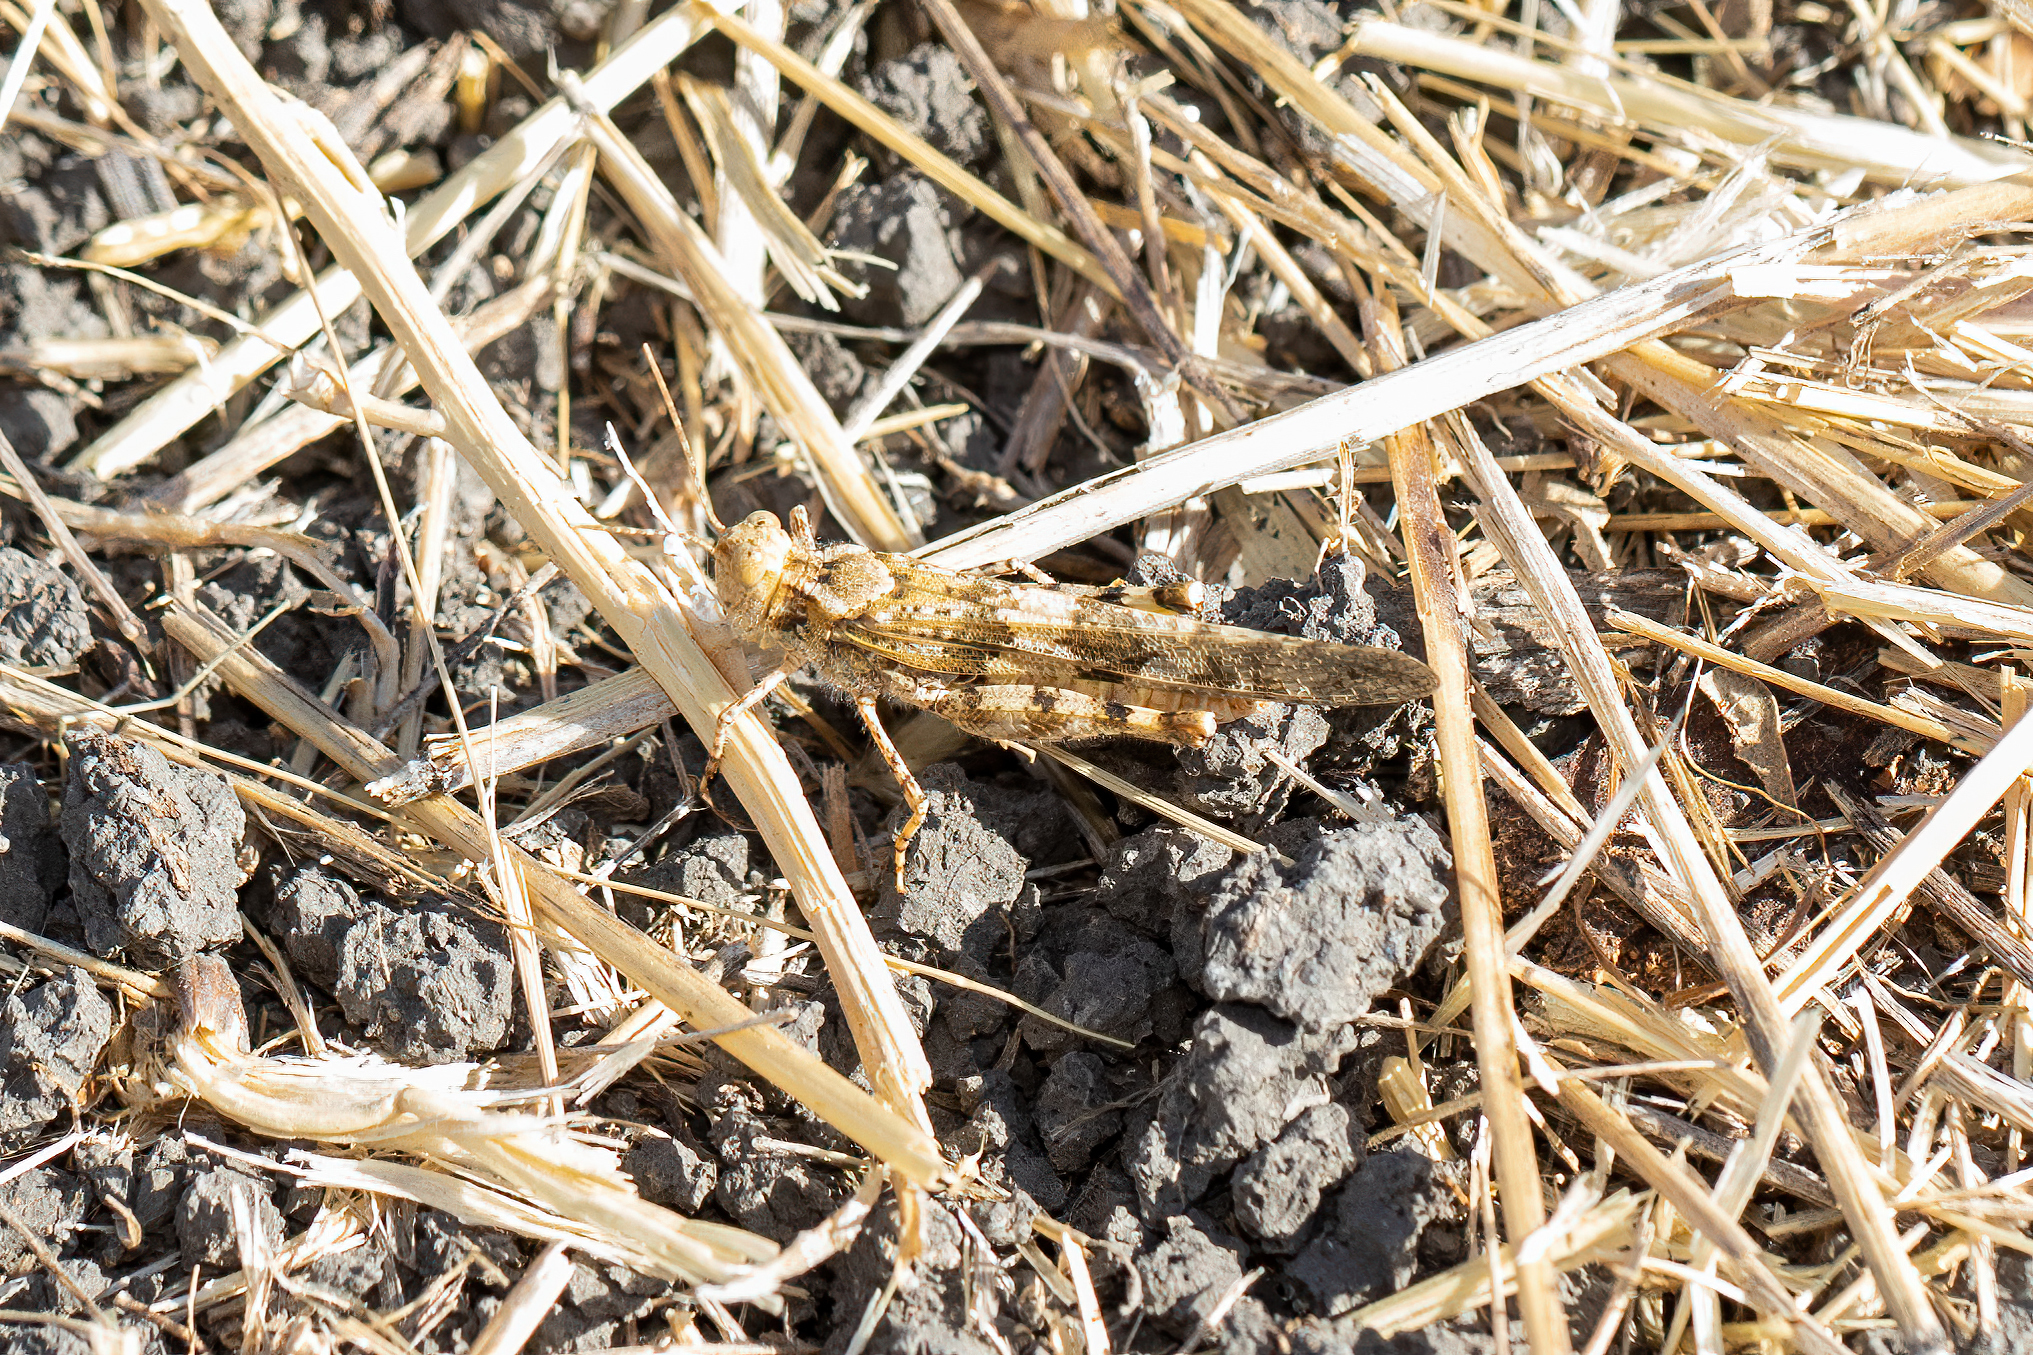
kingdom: Animalia
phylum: Arthropoda
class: Insecta
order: Orthoptera
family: Acrididae
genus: Trimerotropis
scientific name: Trimerotropis pallidipennis
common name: Pallid-winged grasshopper
